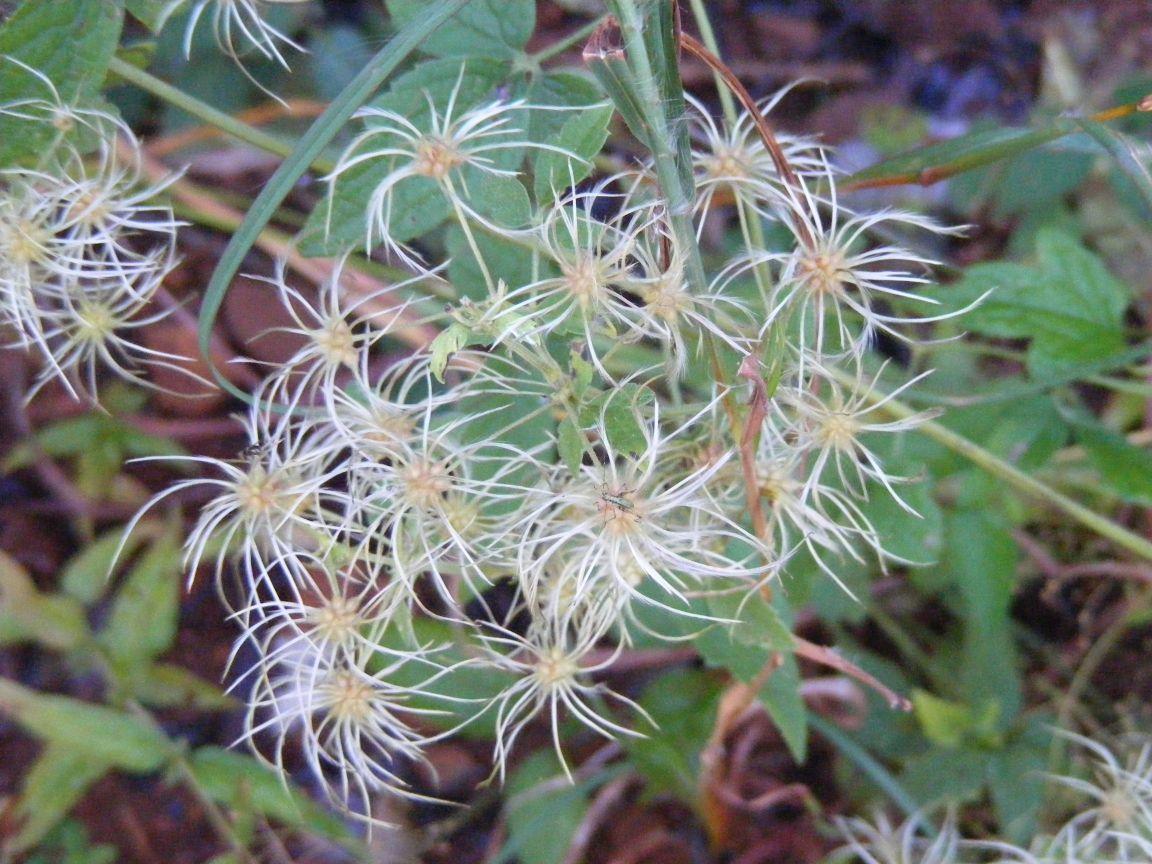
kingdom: Plantae
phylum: Tracheophyta
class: Magnoliopsida
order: Ranunculales
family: Ranunculaceae
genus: Clematis
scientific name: Clematis brachiata
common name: Traveler's-joy
